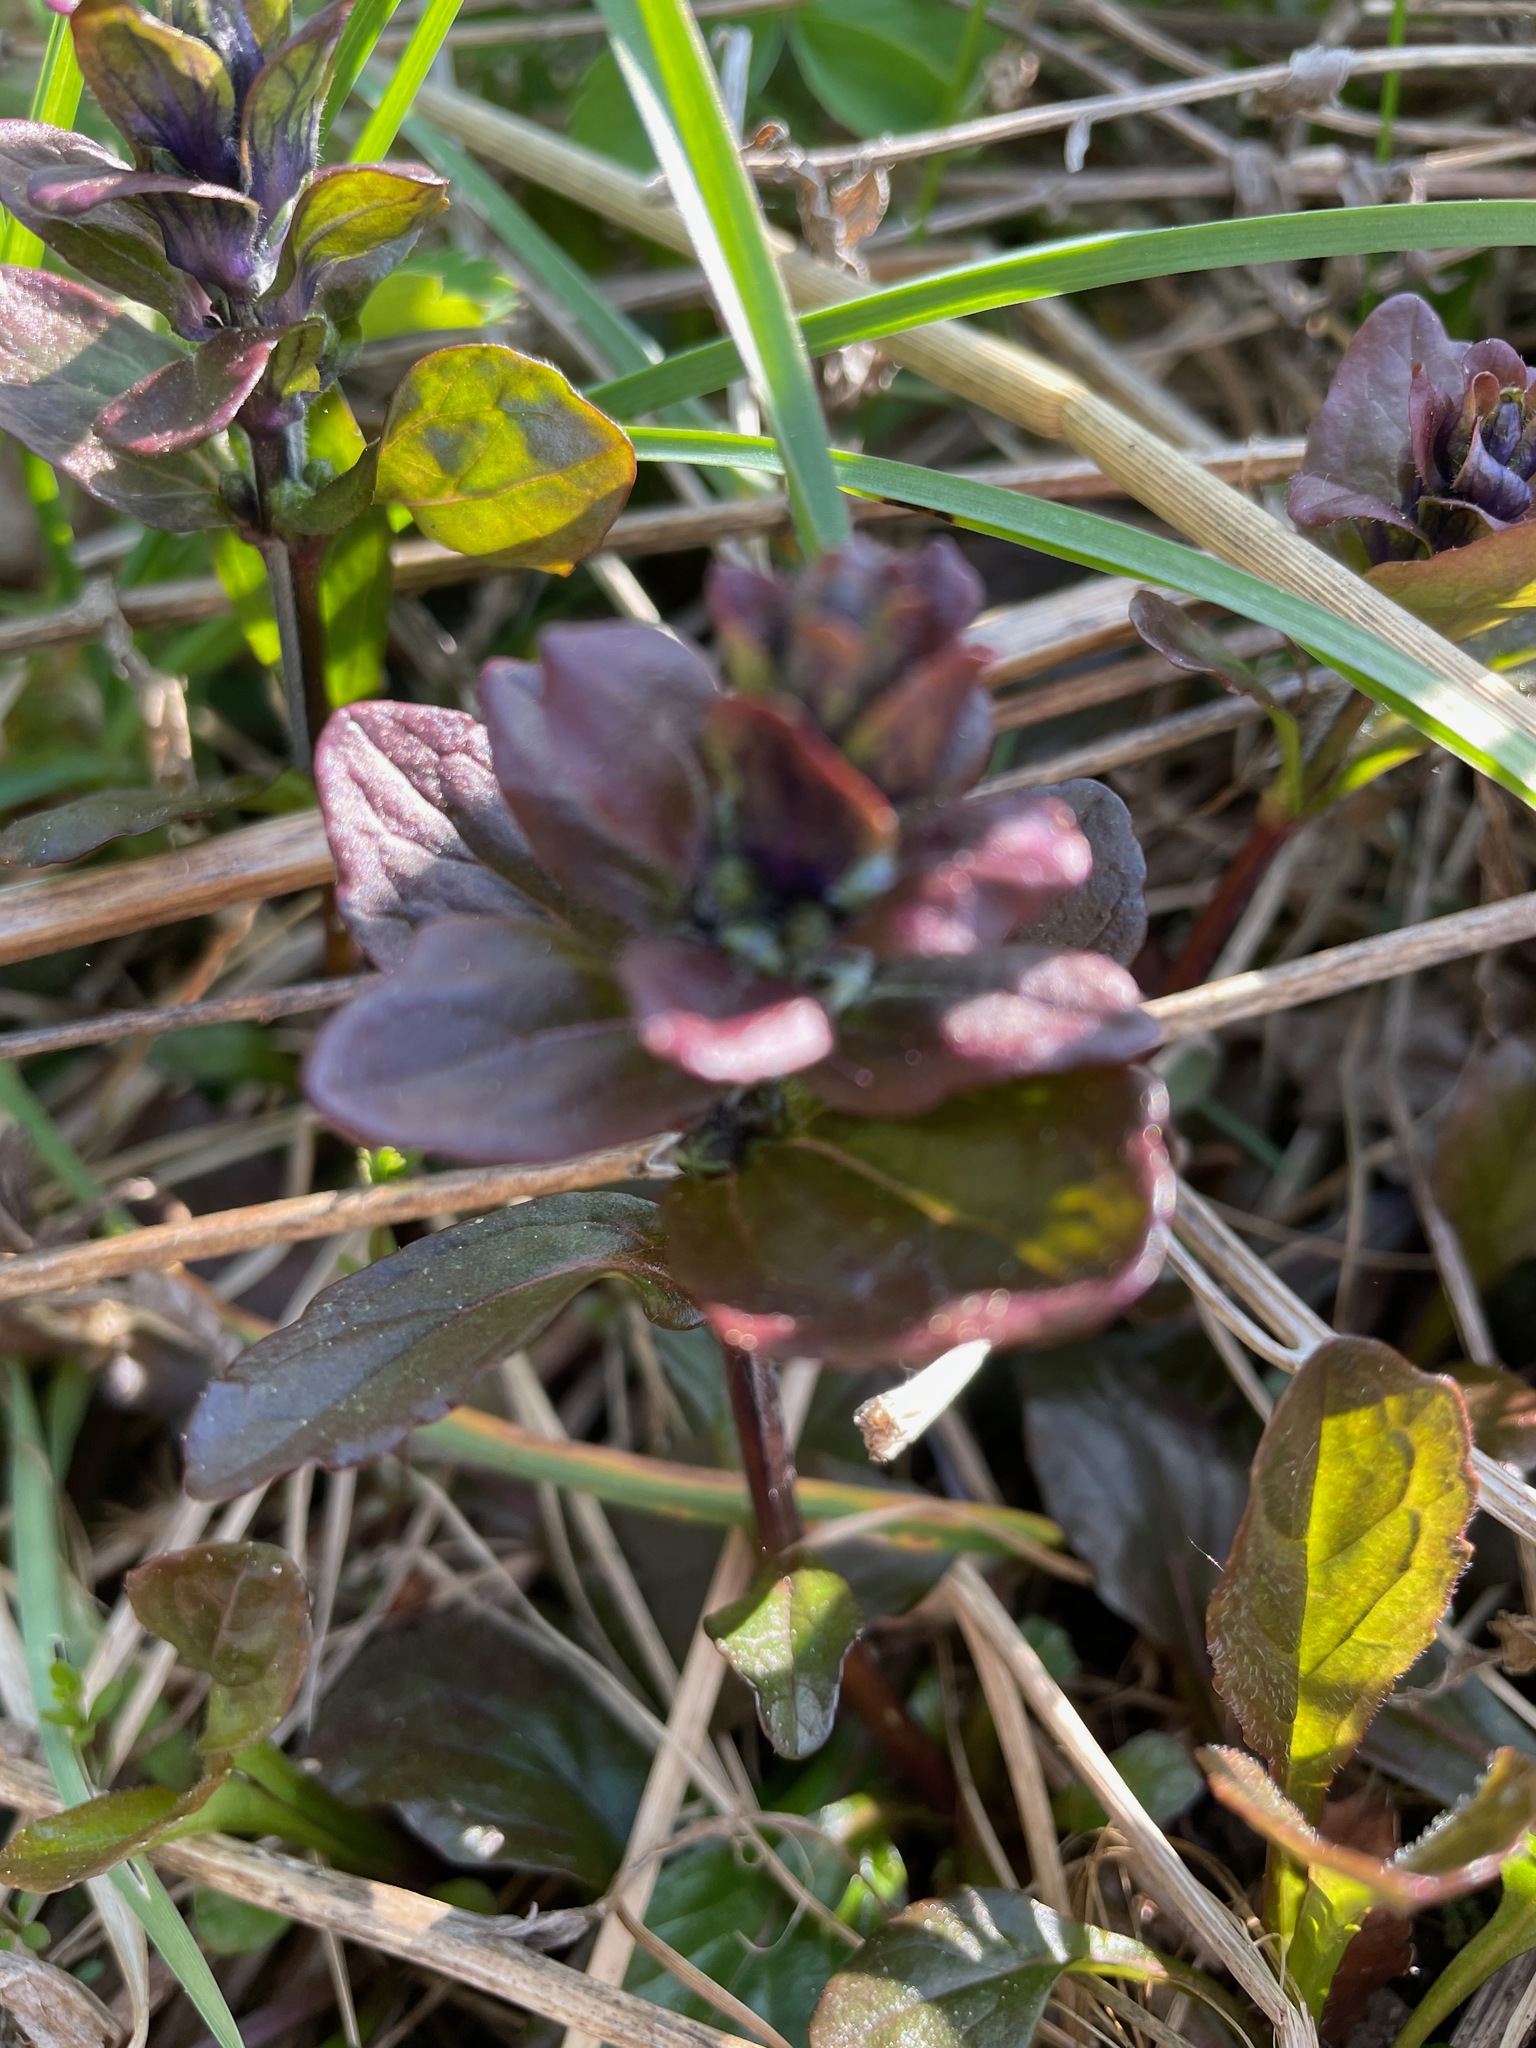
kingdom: Plantae
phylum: Tracheophyta
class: Magnoliopsida
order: Lamiales
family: Lamiaceae
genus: Ajuga
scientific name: Ajuga reptans
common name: Bugle
